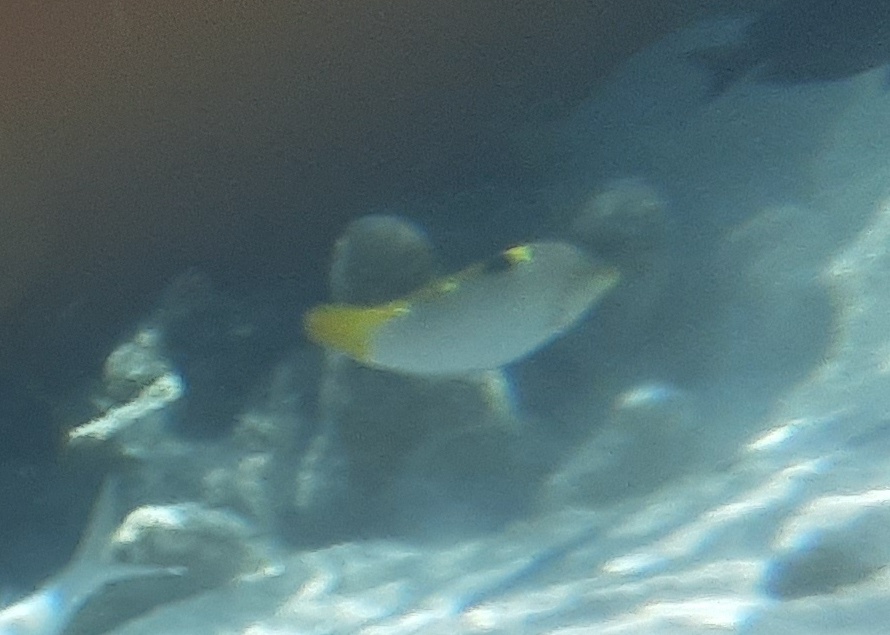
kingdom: Animalia
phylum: Chordata
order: Perciformes
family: Labridae
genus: Halichoeres
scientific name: Halichoeres hortulanus
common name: Checkerboard wrasse
